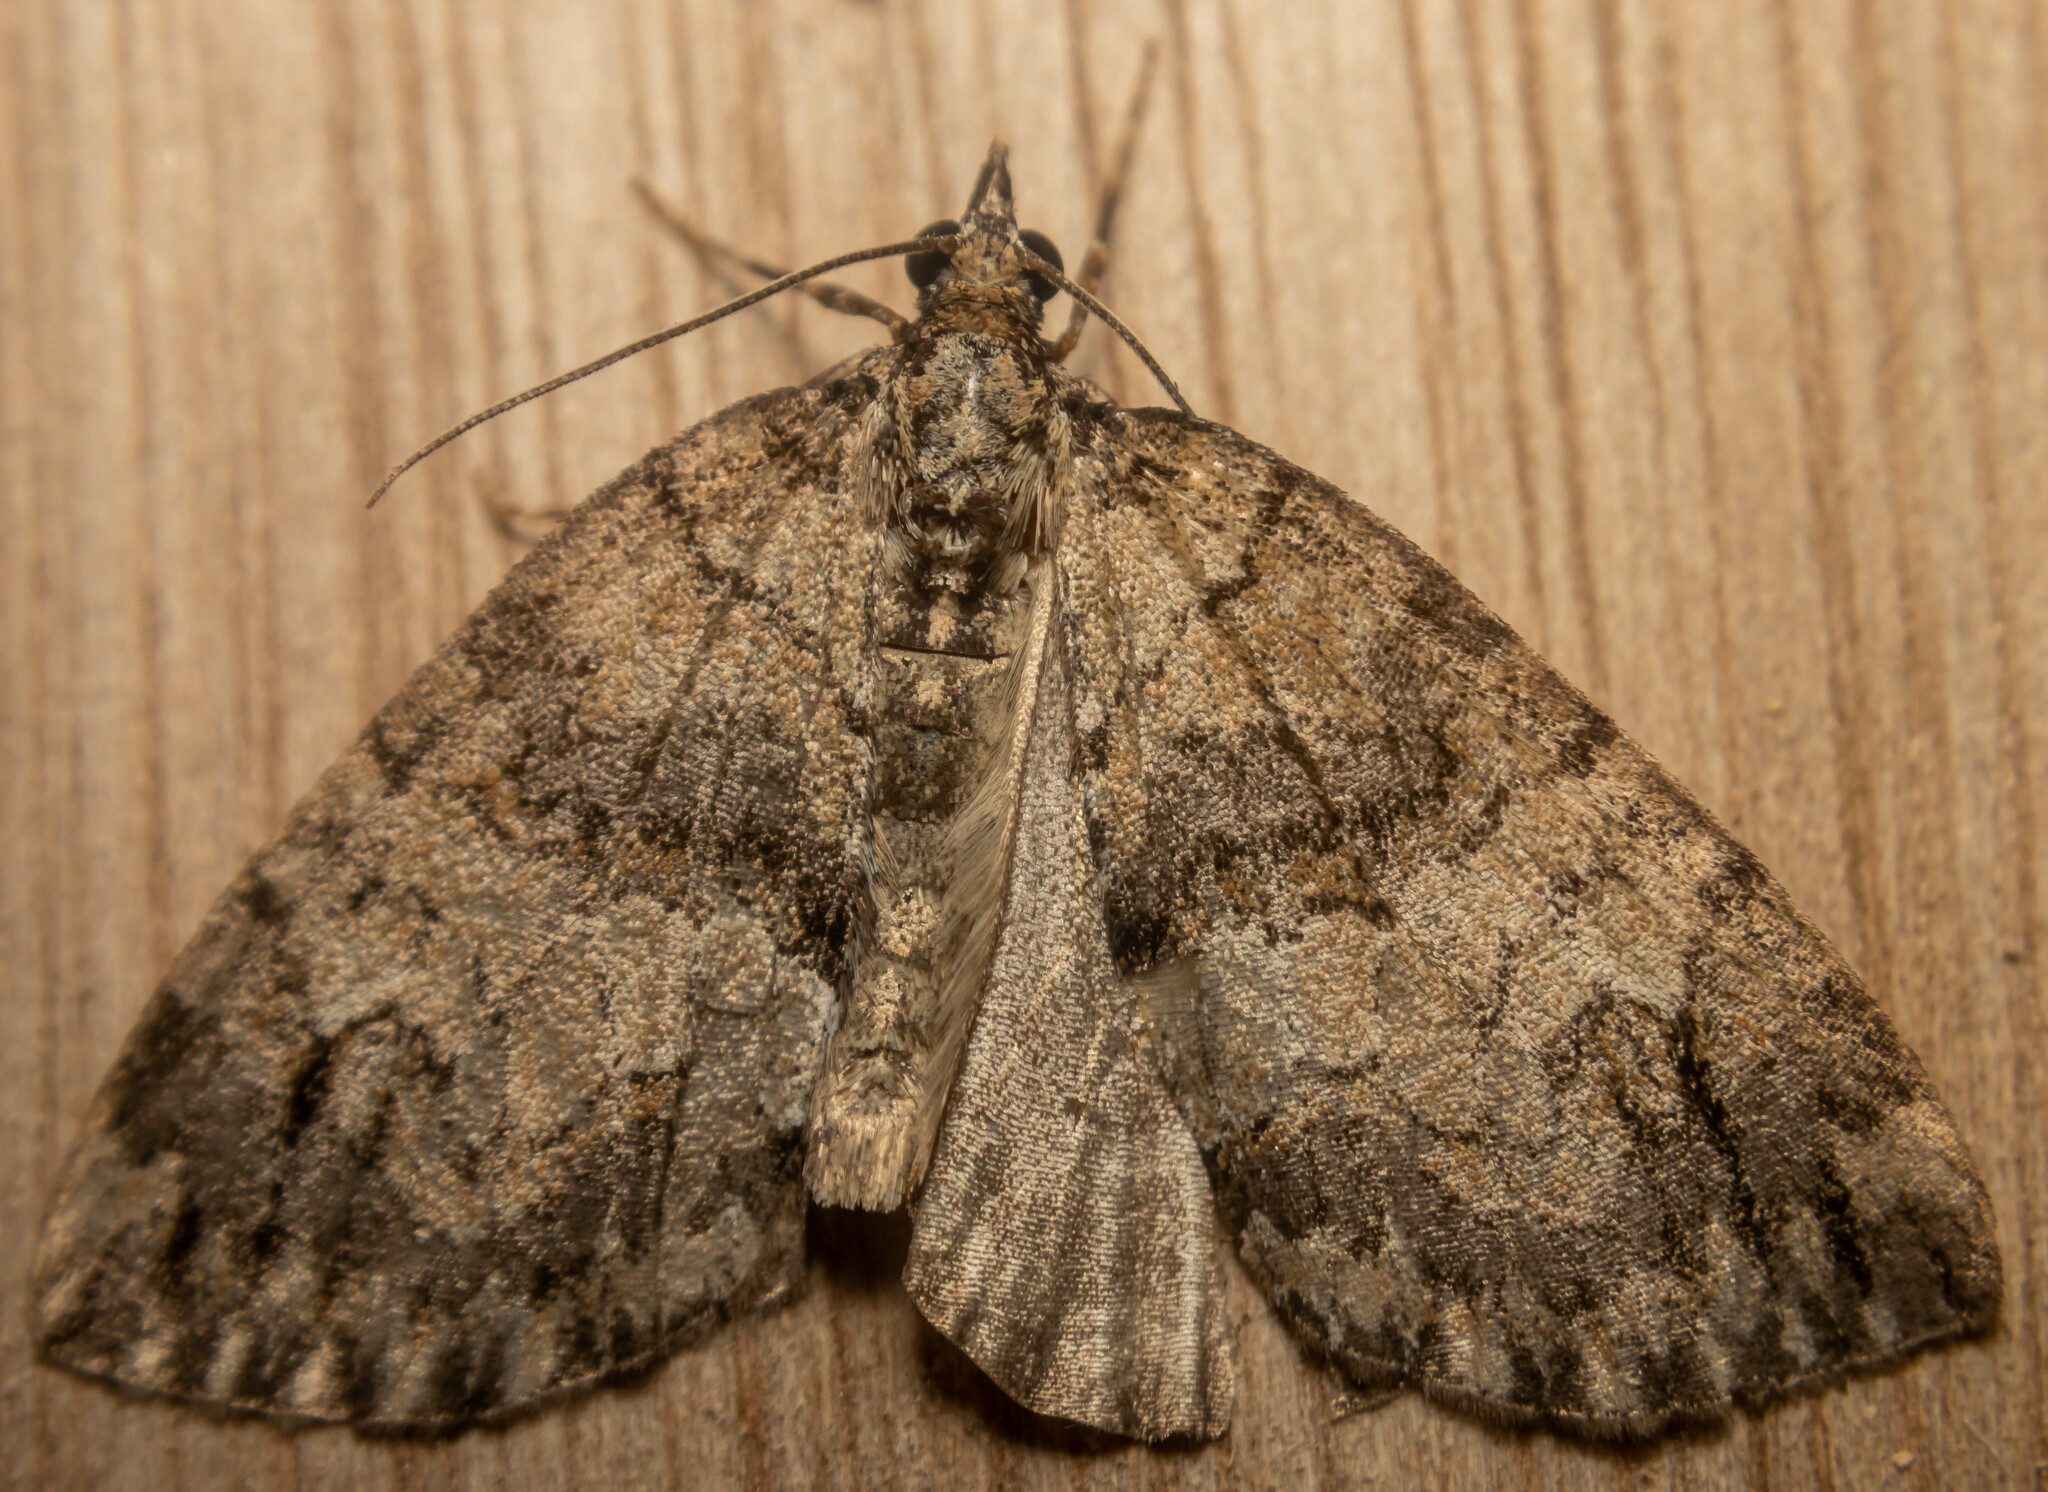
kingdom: Animalia
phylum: Arthropoda
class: Insecta
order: Lepidoptera
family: Geometridae
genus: Hydriomena
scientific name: Hydriomena impluviata
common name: May highflyer
